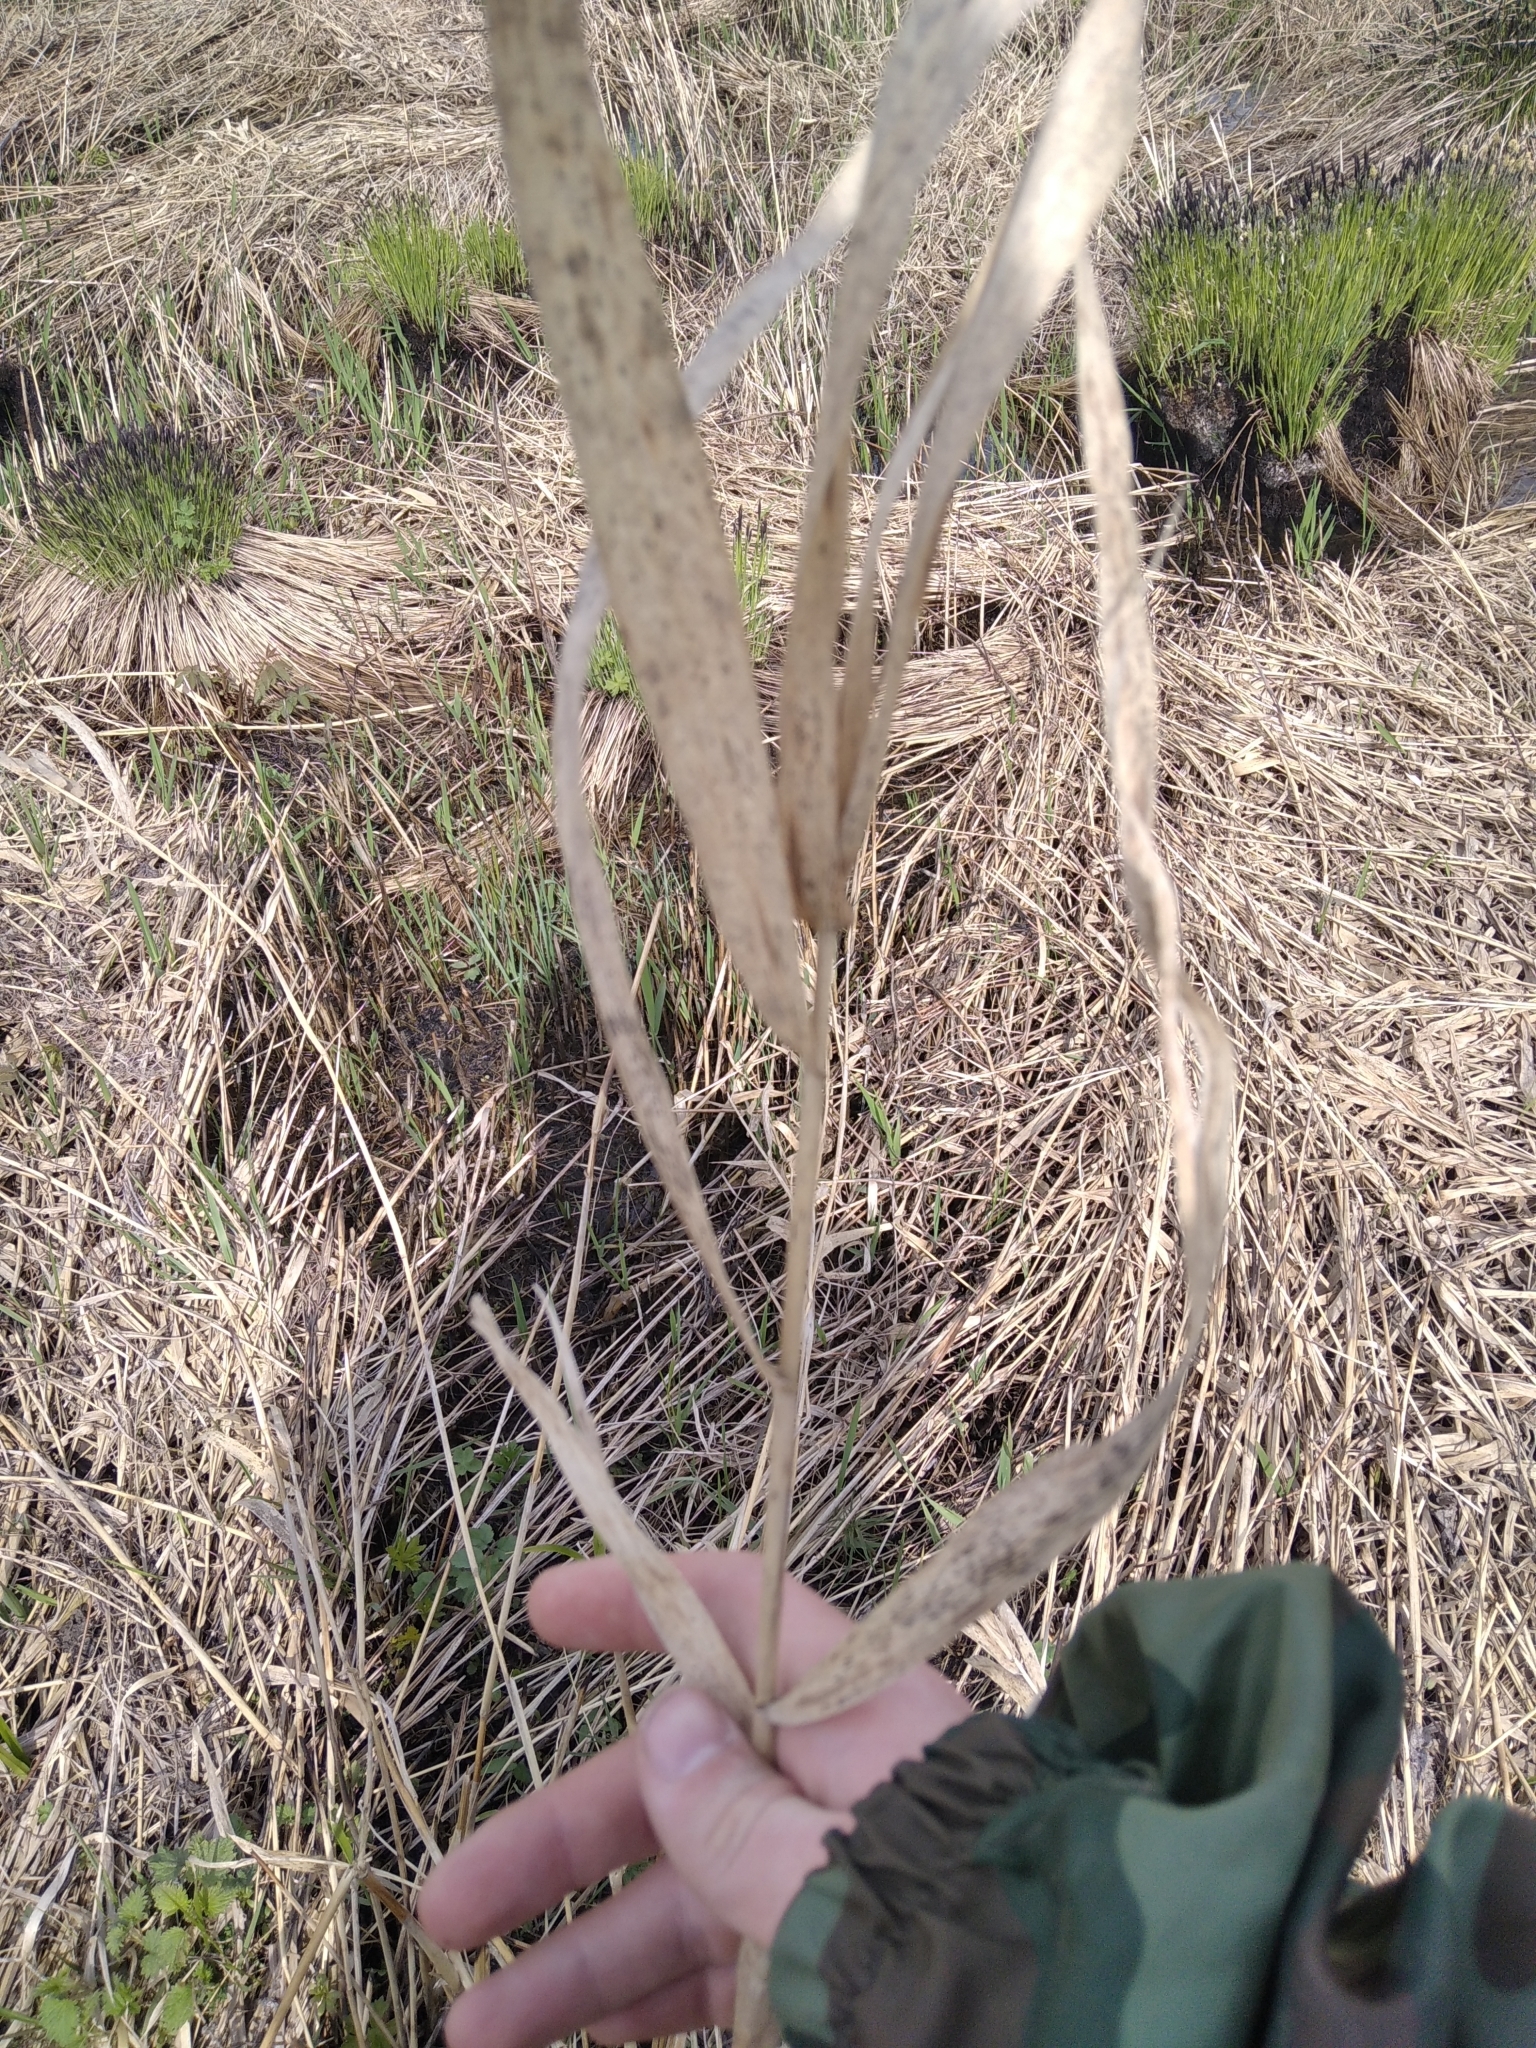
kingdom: Plantae
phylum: Tracheophyta
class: Liliopsida
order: Poales
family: Poaceae
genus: Phragmites
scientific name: Phragmites australis
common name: Common reed
